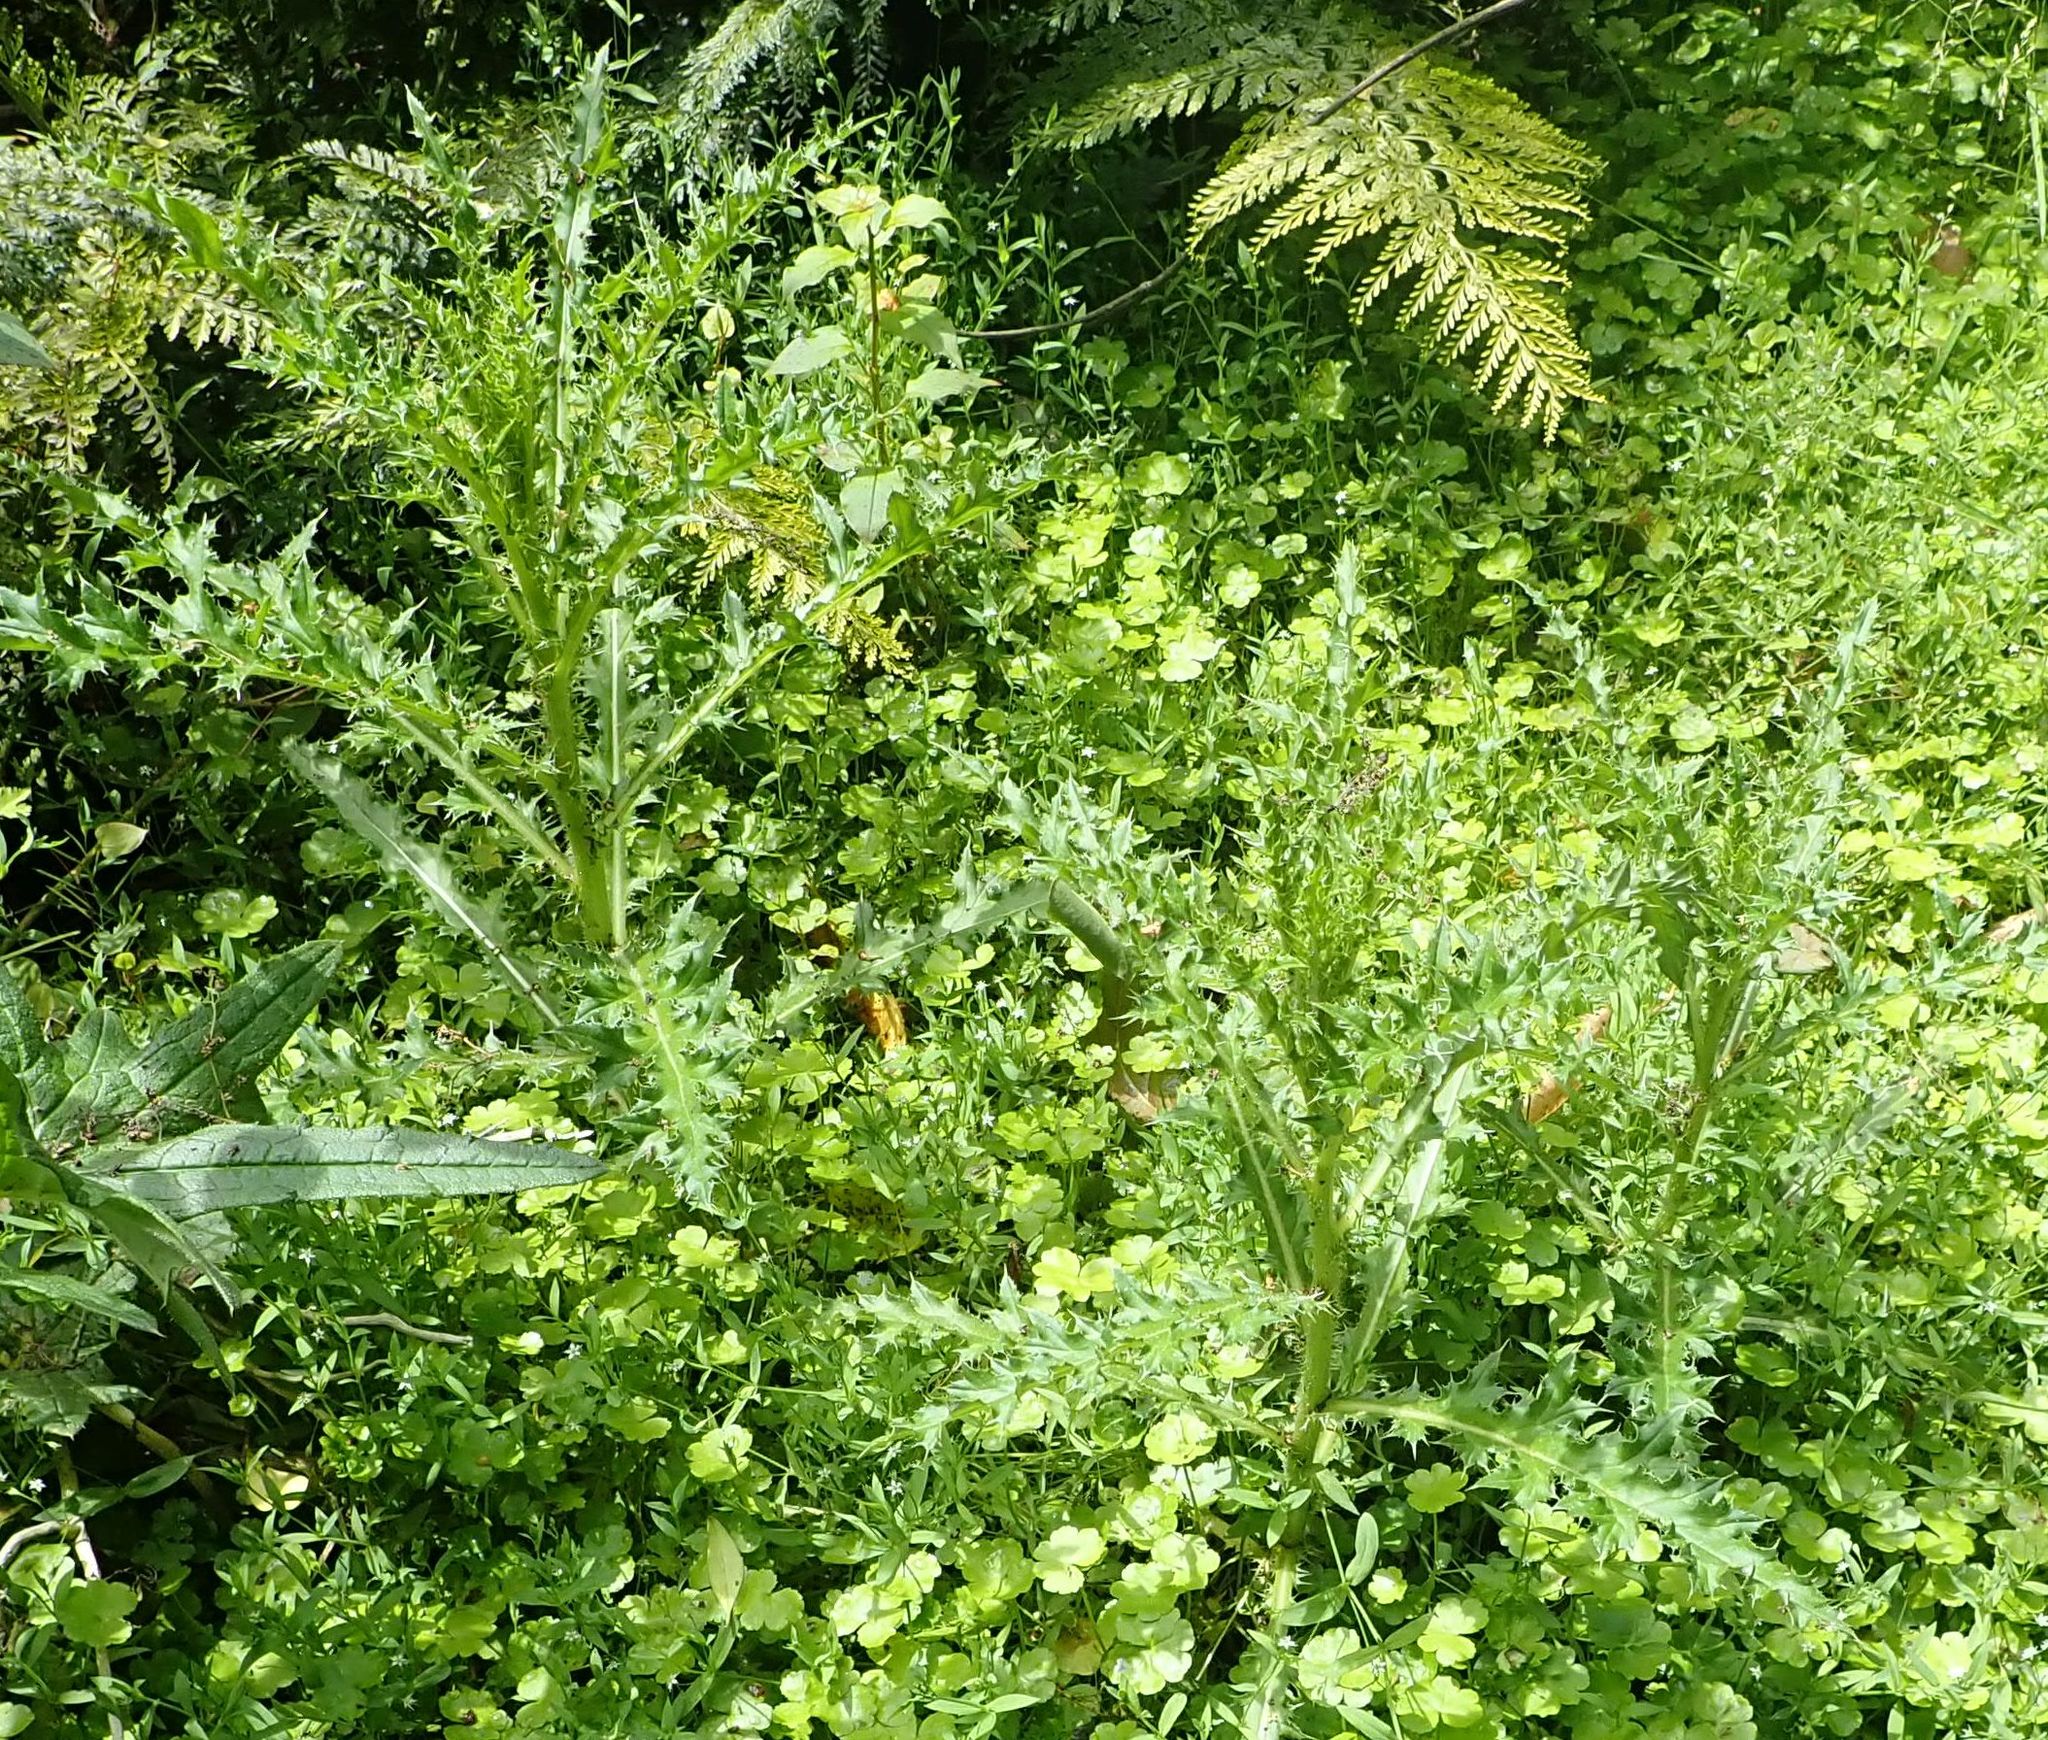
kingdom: Plantae
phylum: Tracheophyta
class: Magnoliopsida
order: Asterales
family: Asteraceae
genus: Cirsium
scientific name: Cirsium arvense
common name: Creeping thistle
